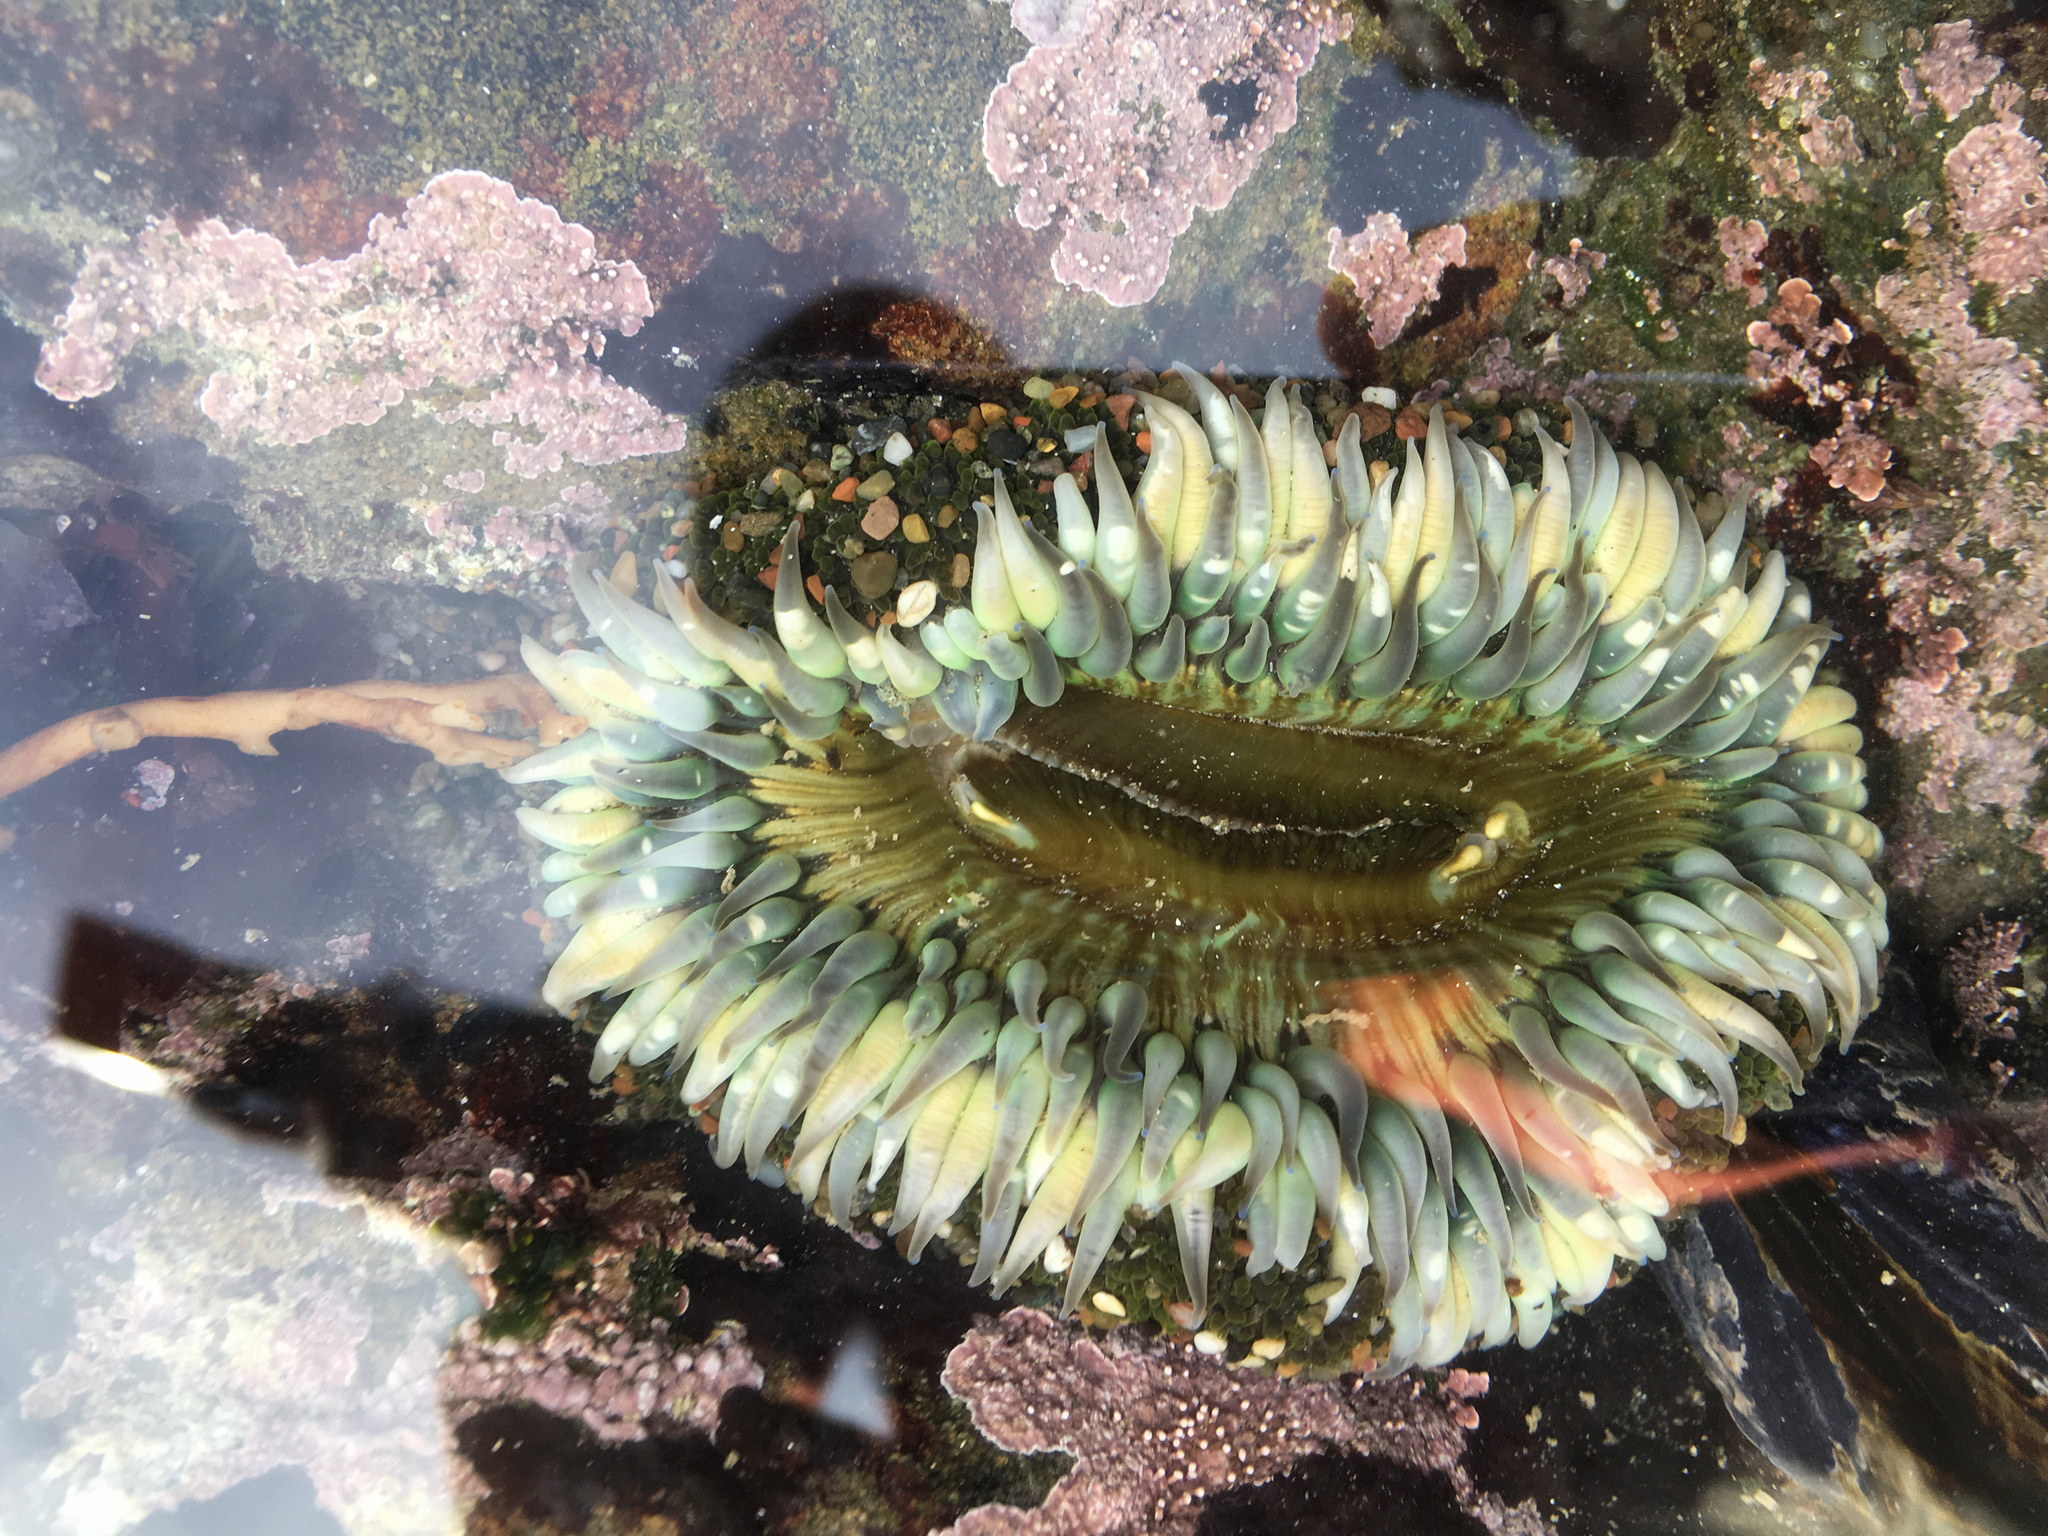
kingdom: Animalia
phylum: Cnidaria
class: Anthozoa
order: Actiniaria
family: Actiniidae
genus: Anthopleura
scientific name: Anthopleura sola
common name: Sun anemone
